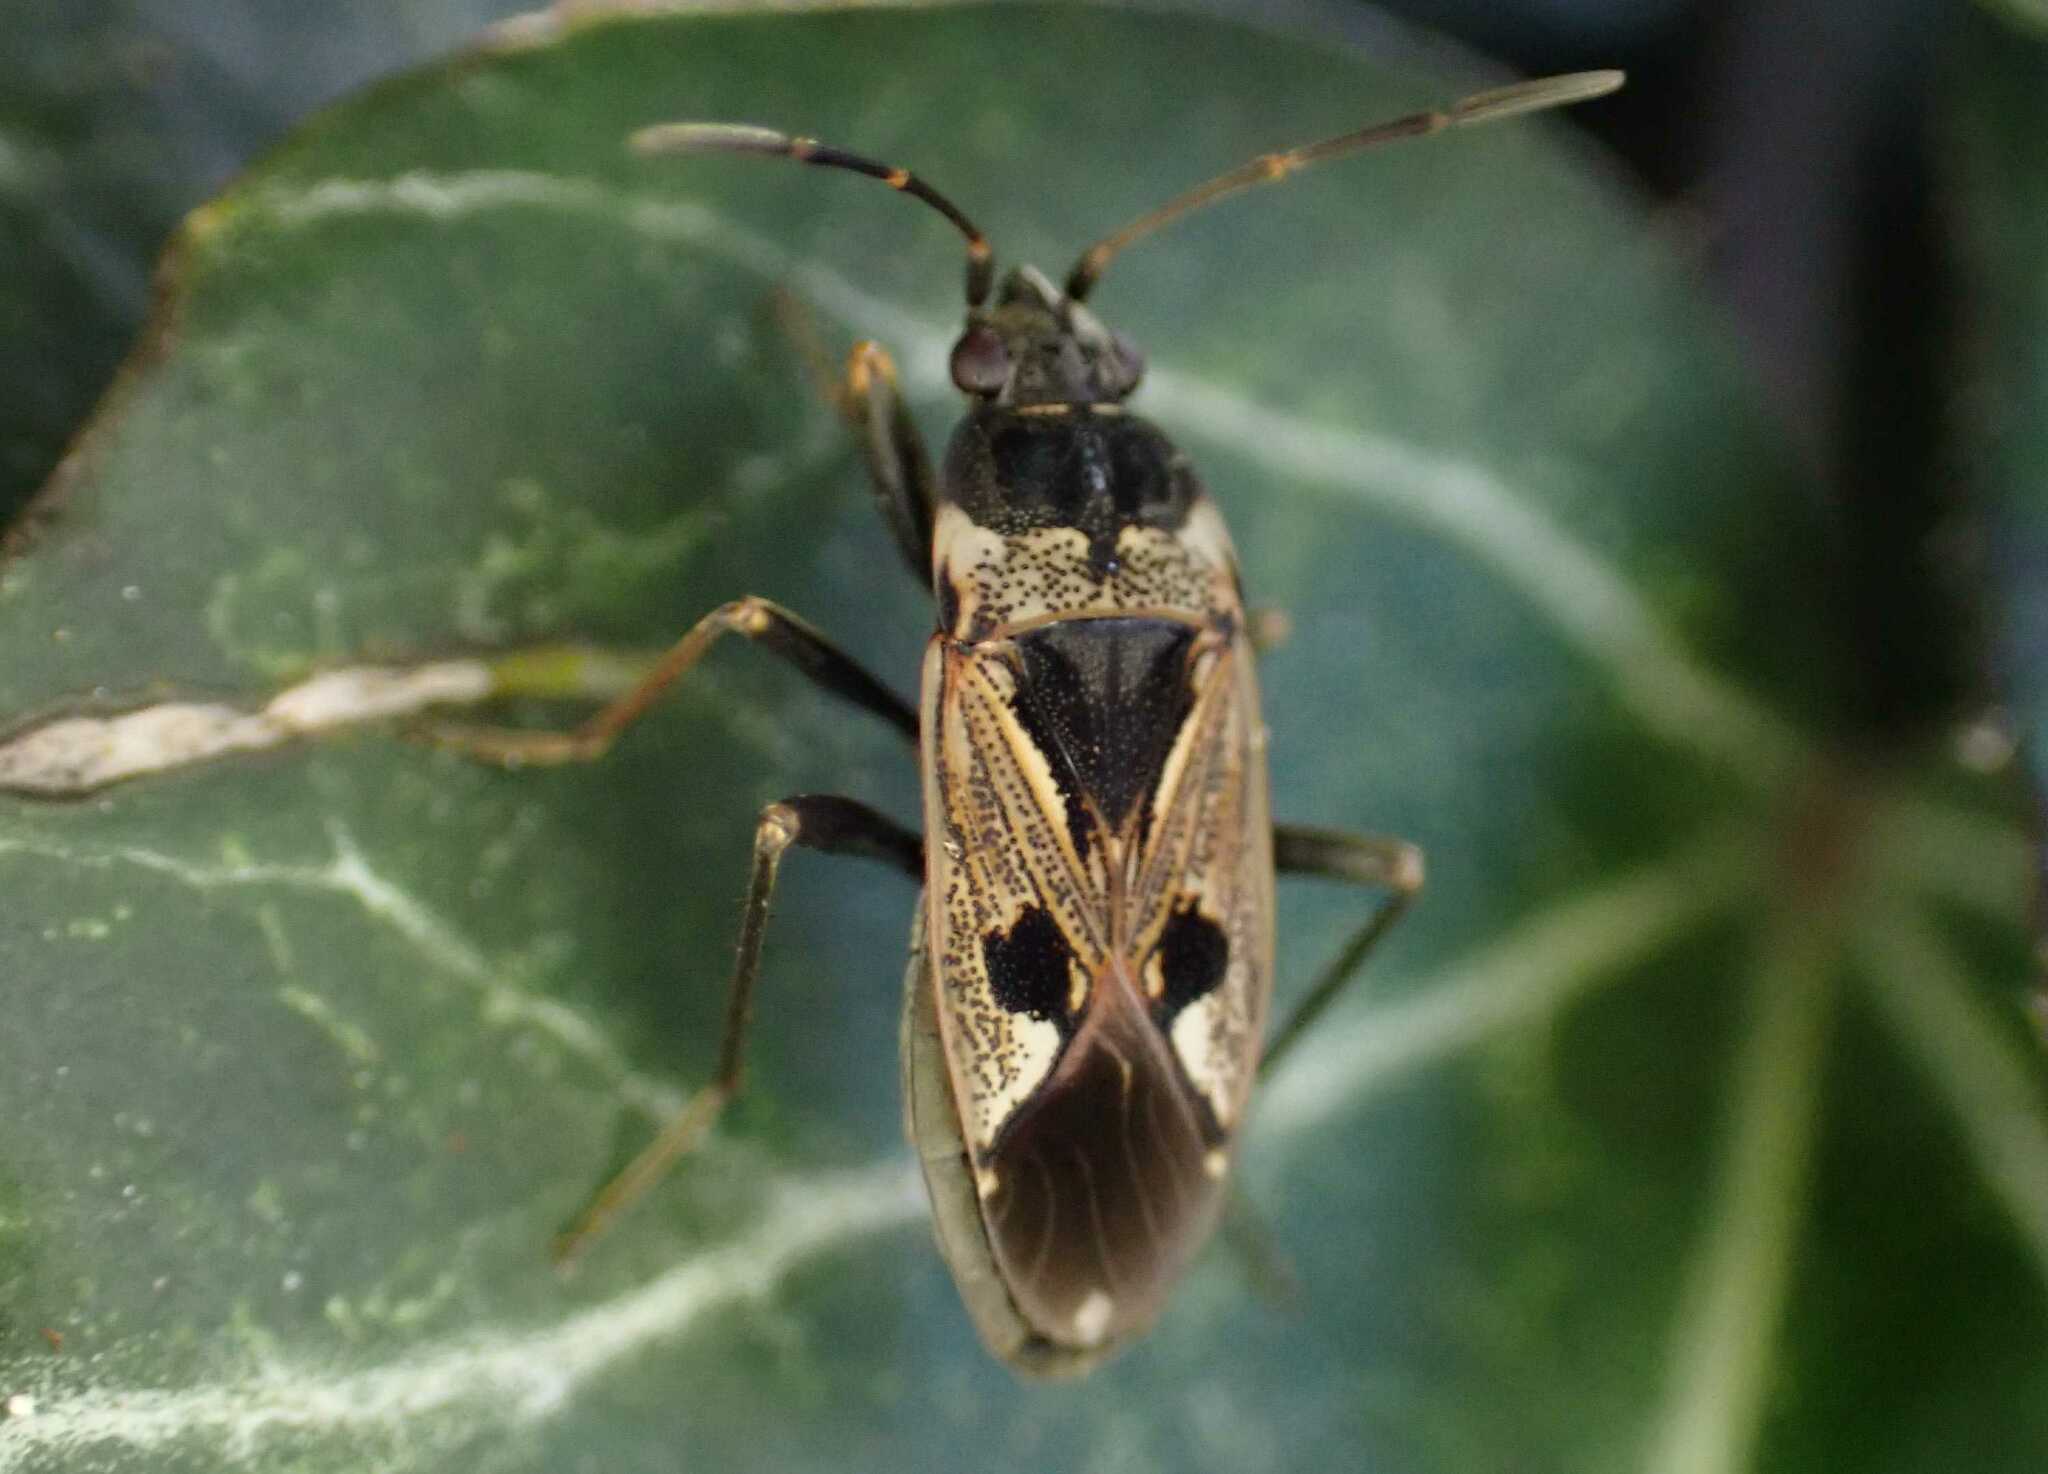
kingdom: Animalia
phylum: Arthropoda
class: Insecta
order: Hemiptera
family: Rhyparochromidae
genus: Rhyparochromus
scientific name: Rhyparochromus vulgaris
